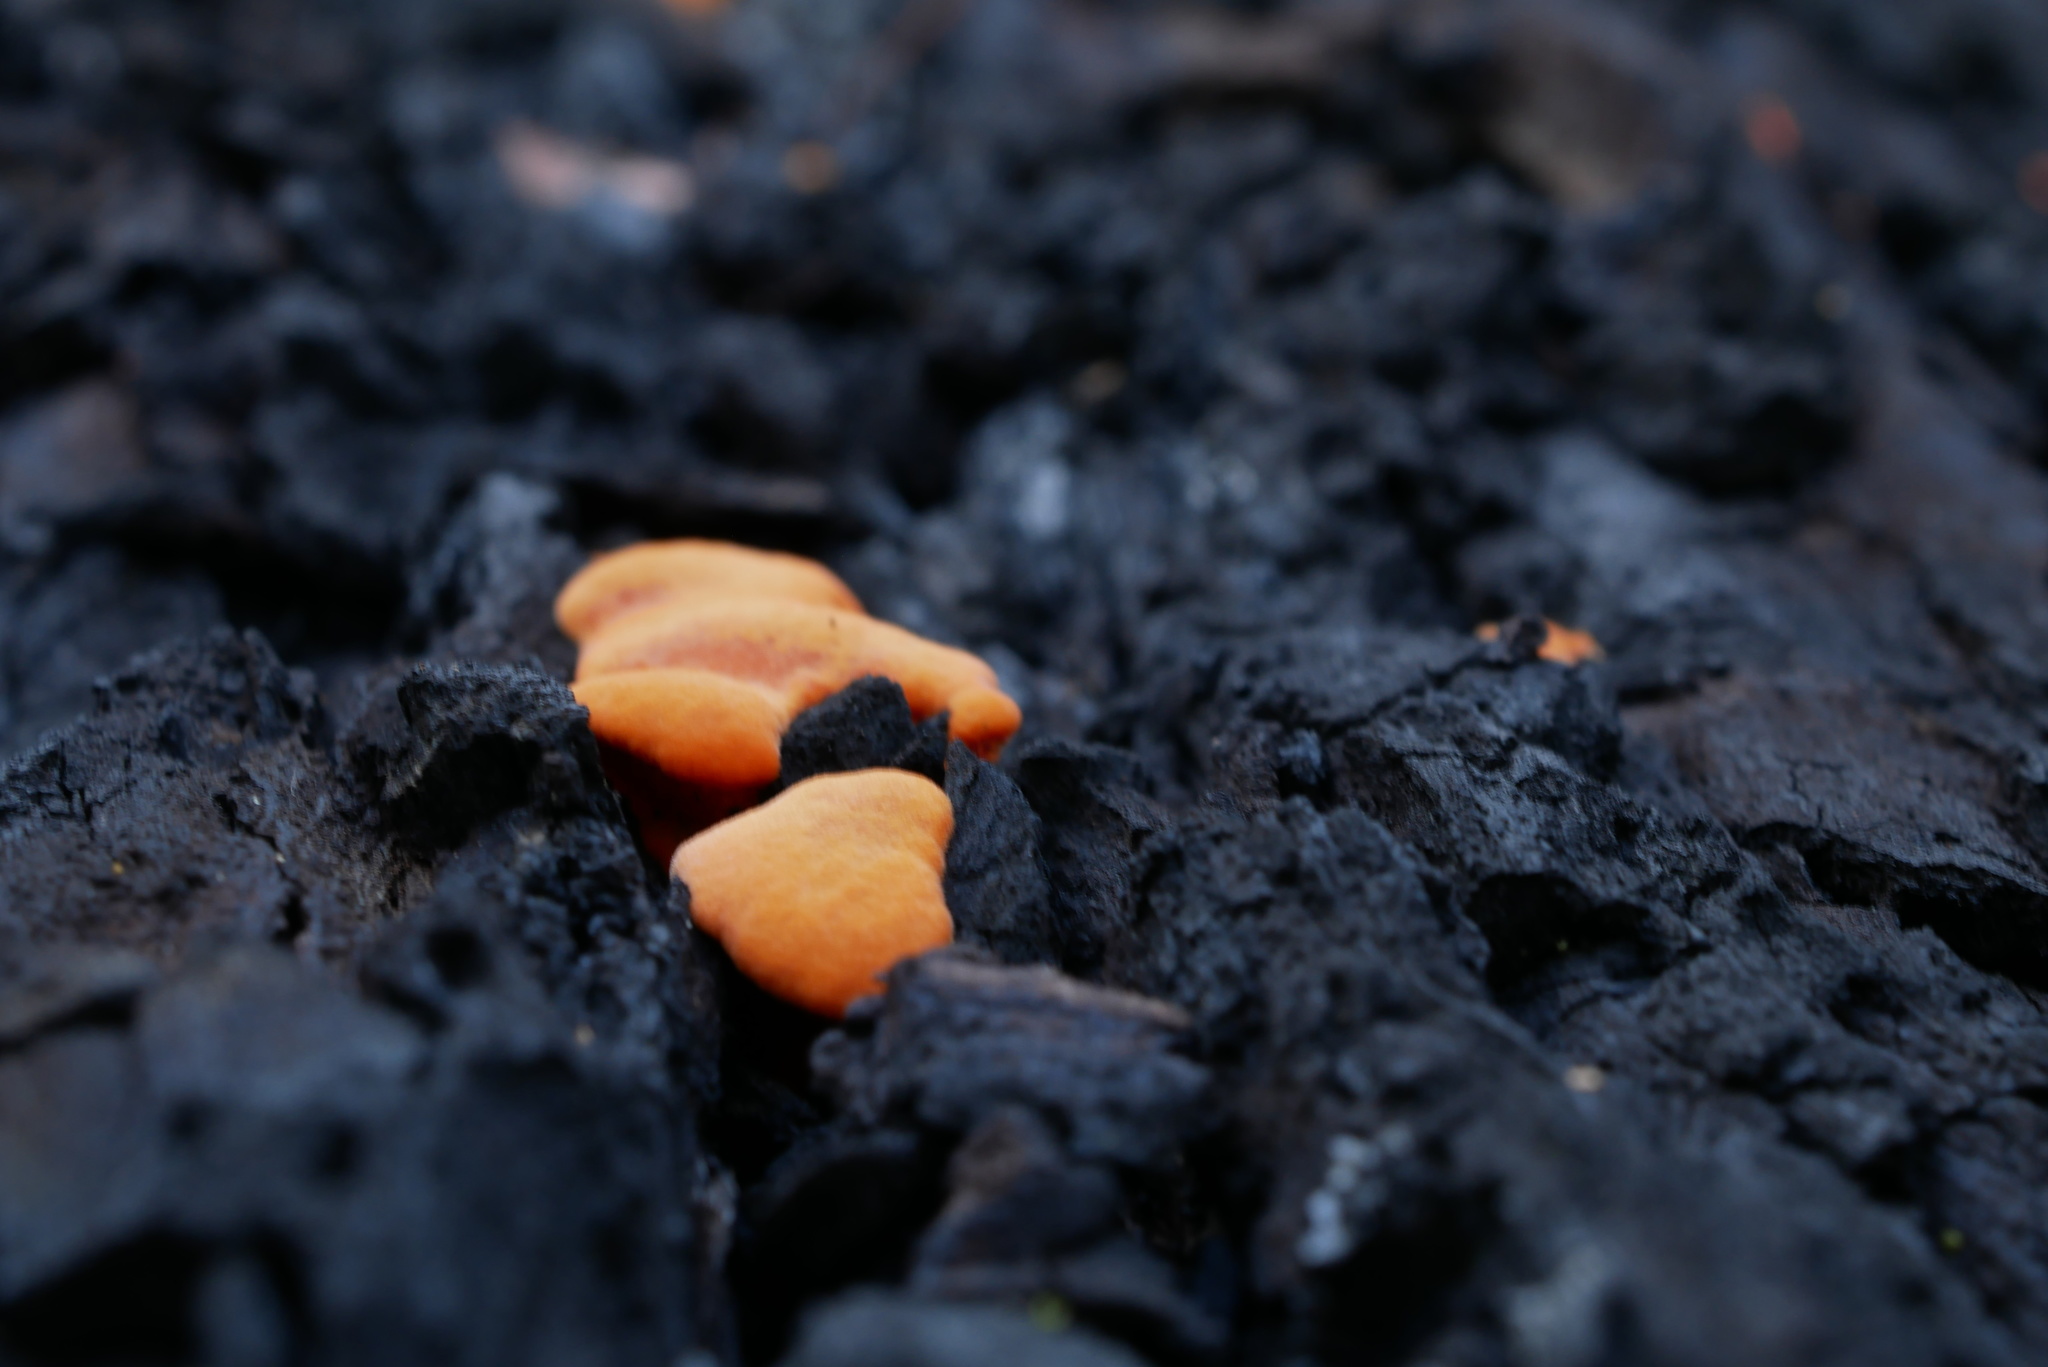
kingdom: Fungi
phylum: Basidiomycota
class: Agaricomycetes
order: Polyporales
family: Polyporaceae
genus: Trametes
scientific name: Trametes coccinea
